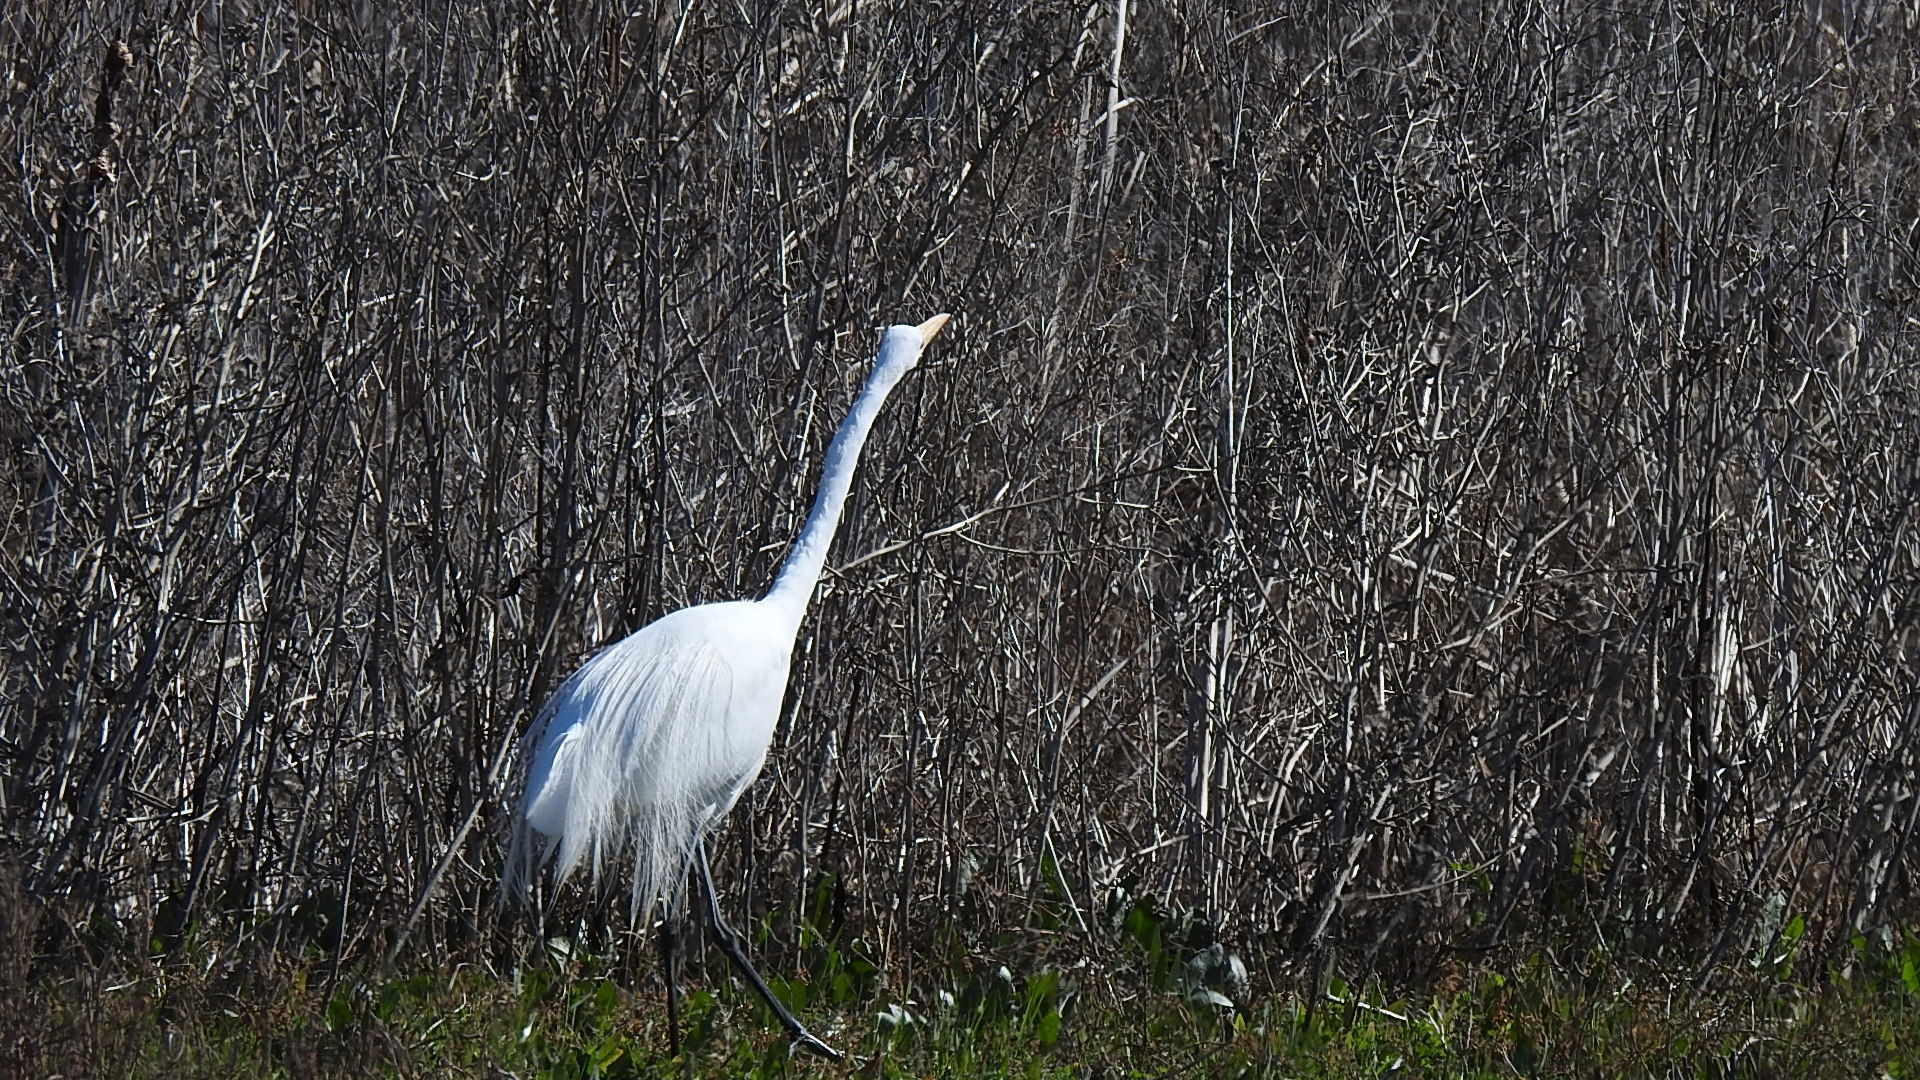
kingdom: Animalia
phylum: Chordata
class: Aves
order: Pelecaniformes
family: Ardeidae
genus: Ardea
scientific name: Ardea alba
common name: Great egret
